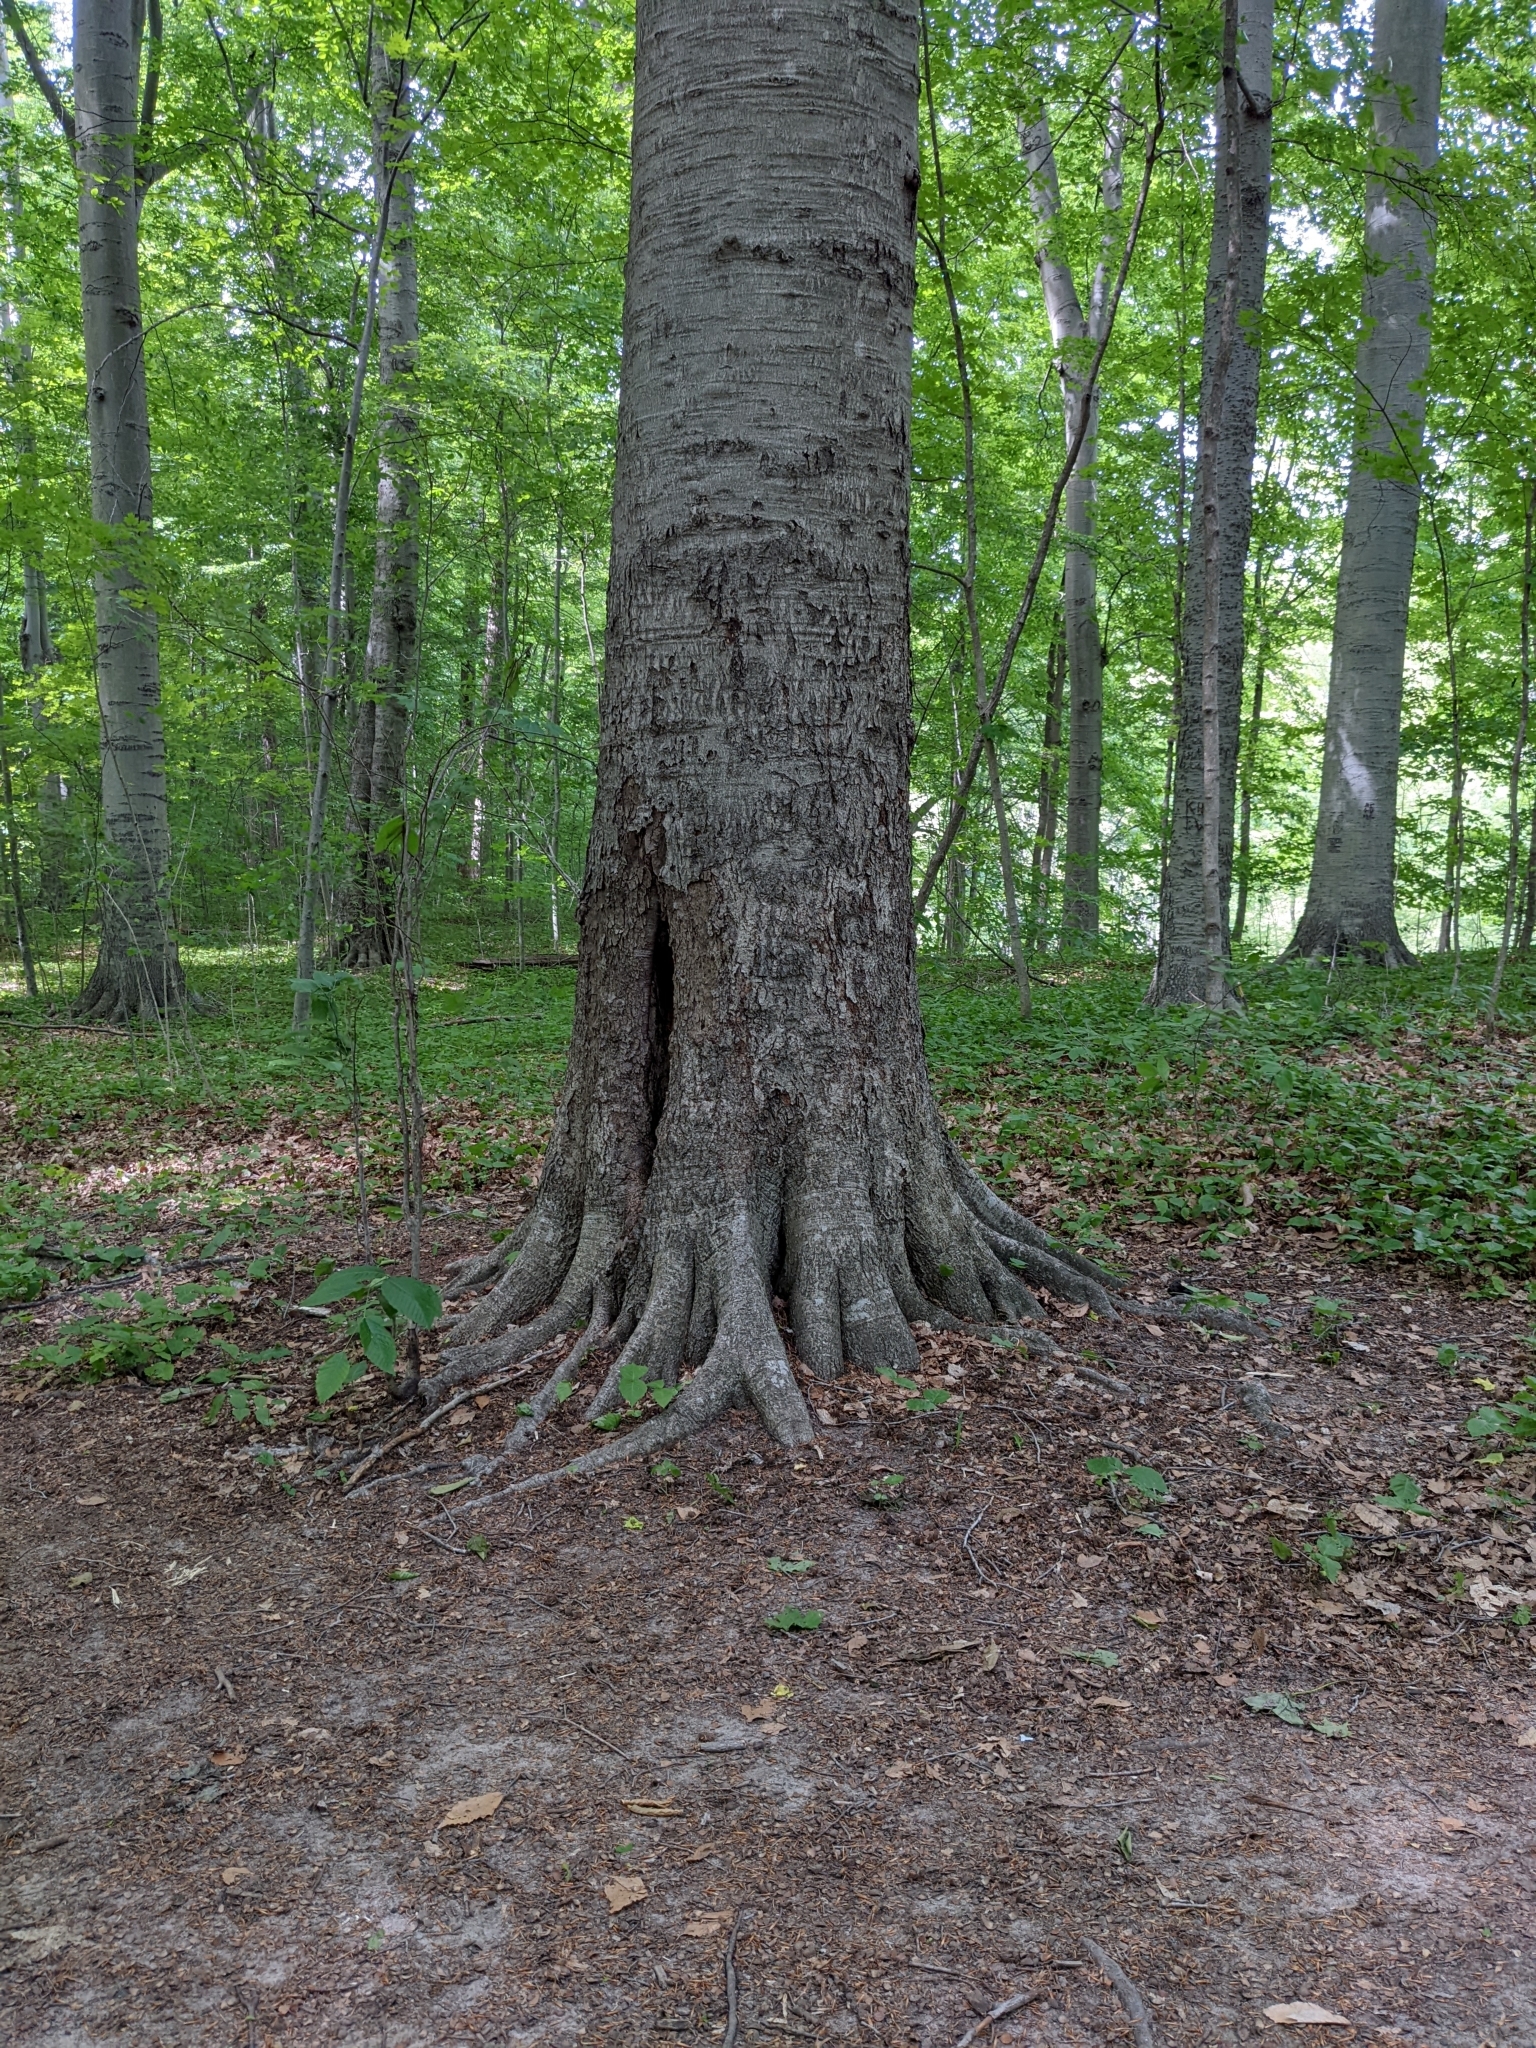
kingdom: Plantae
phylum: Tracheophyta
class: Magnoliopsida
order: Fagales
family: Fagaceae
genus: Fagus
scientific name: Fagus grandifolia
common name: American beech
